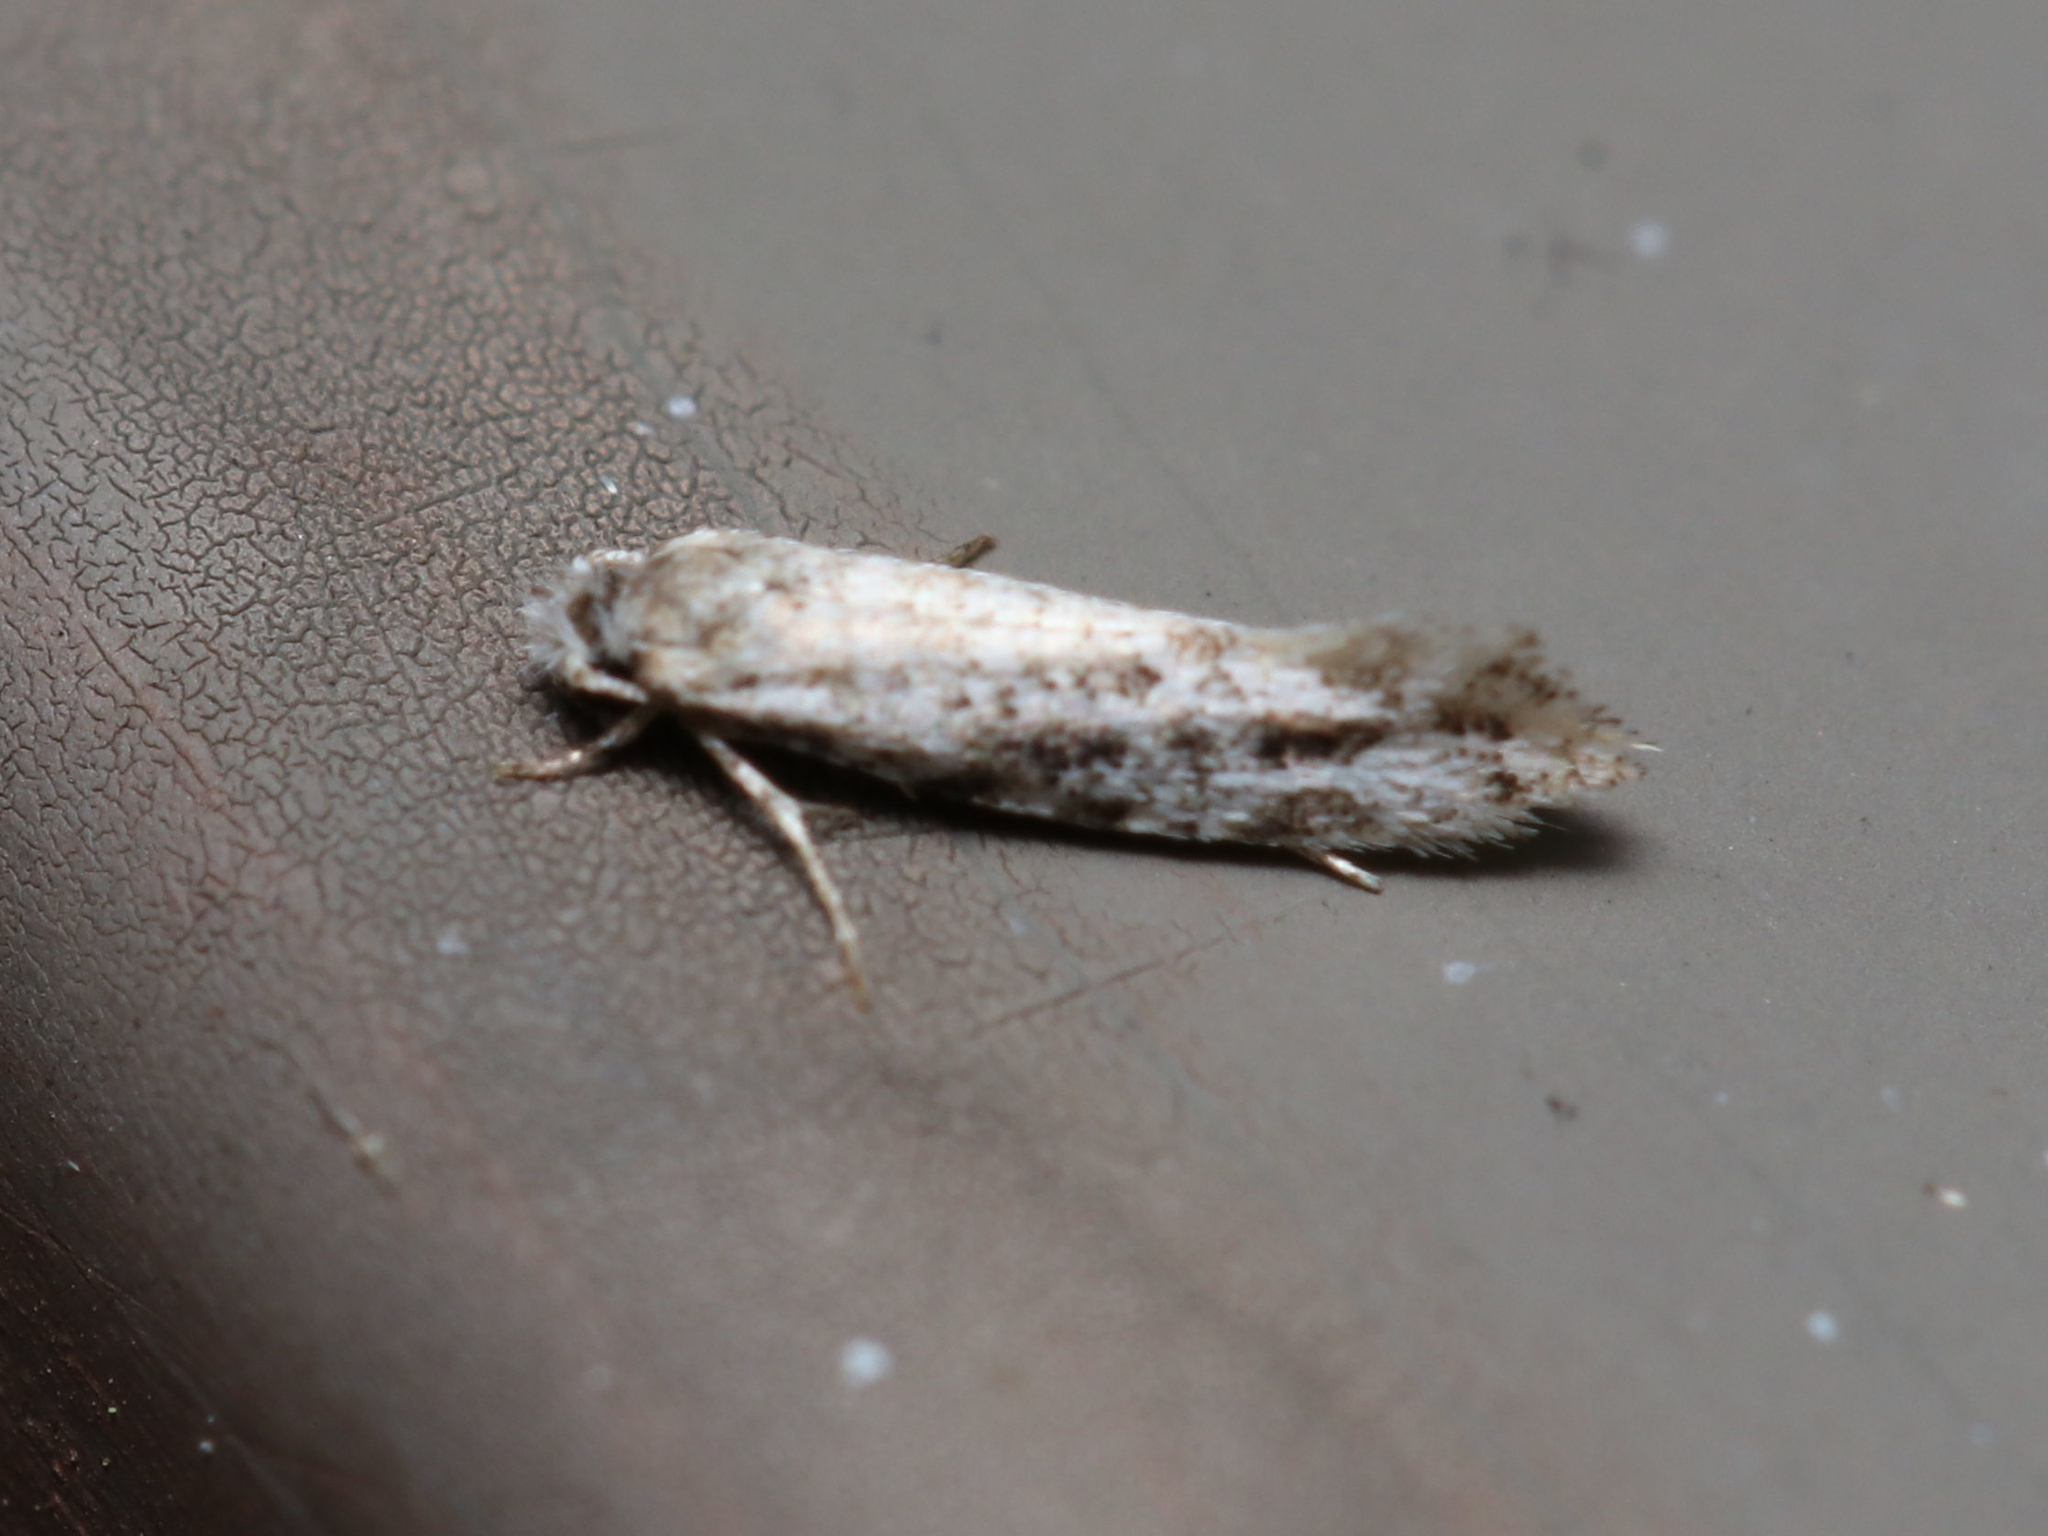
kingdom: Animalia
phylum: Arthropoda
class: Insecta
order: Lepidoptera
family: Meessiidae
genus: Diachorisia
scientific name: Diachorisia velatella
